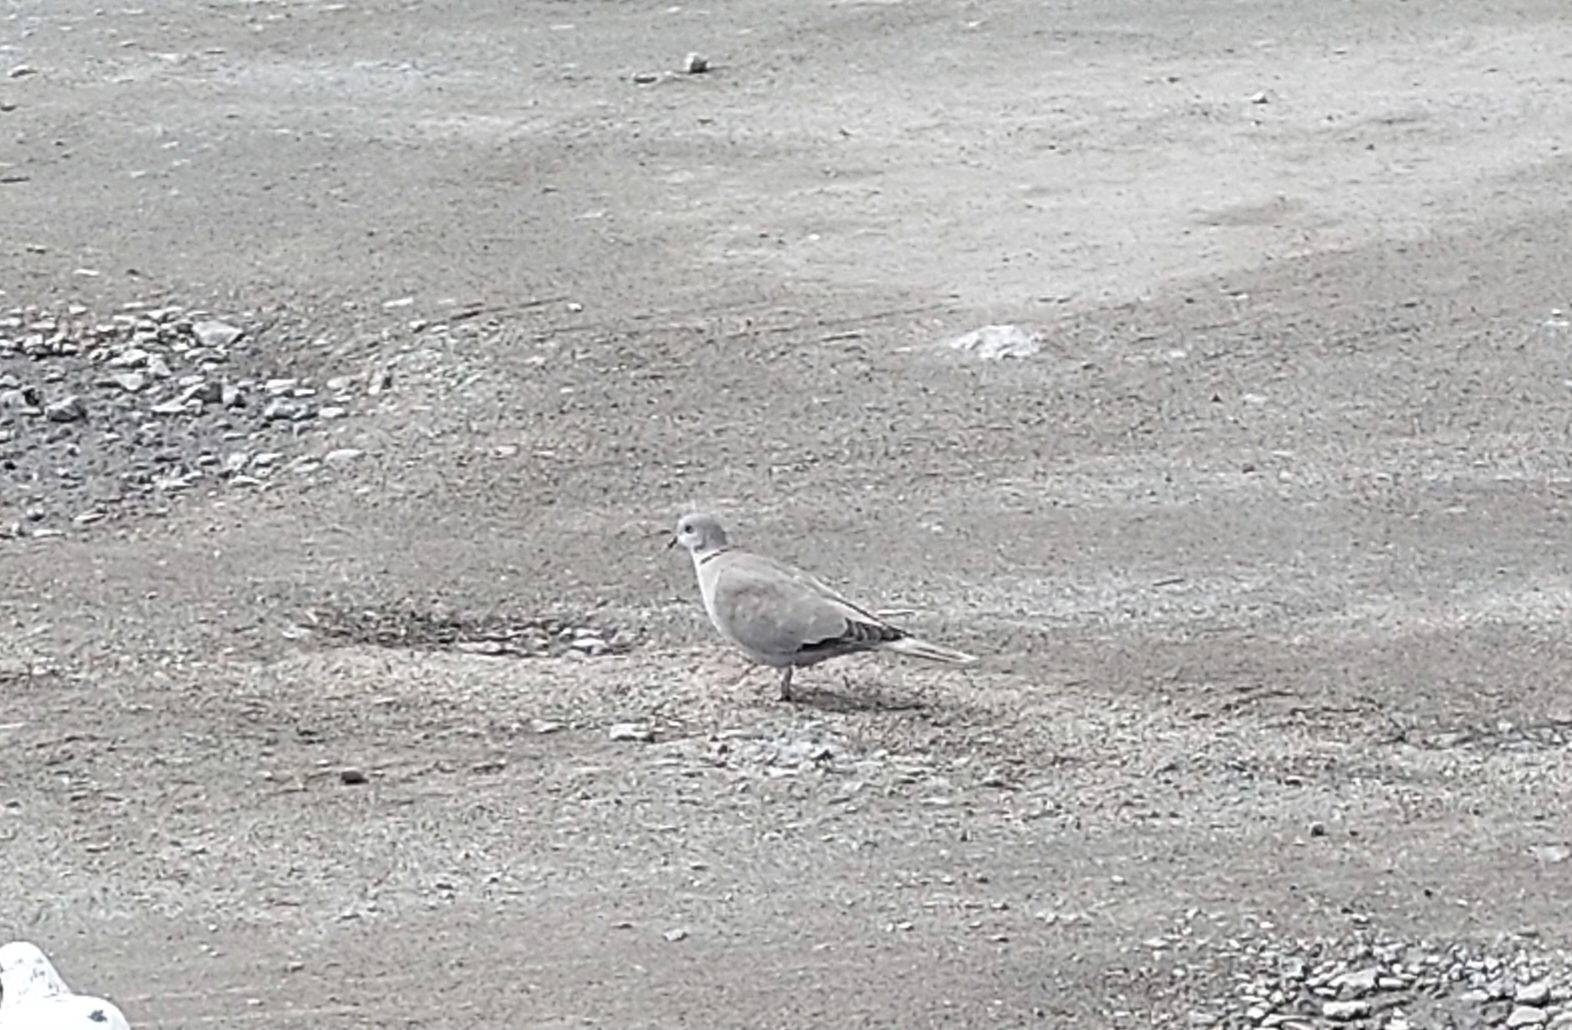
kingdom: Animalia
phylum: Chordata
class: Aves
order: Columbiformes
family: Columbidae
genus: Streptopelia
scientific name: Streptopelia decaocto
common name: Eurasian collared dove
